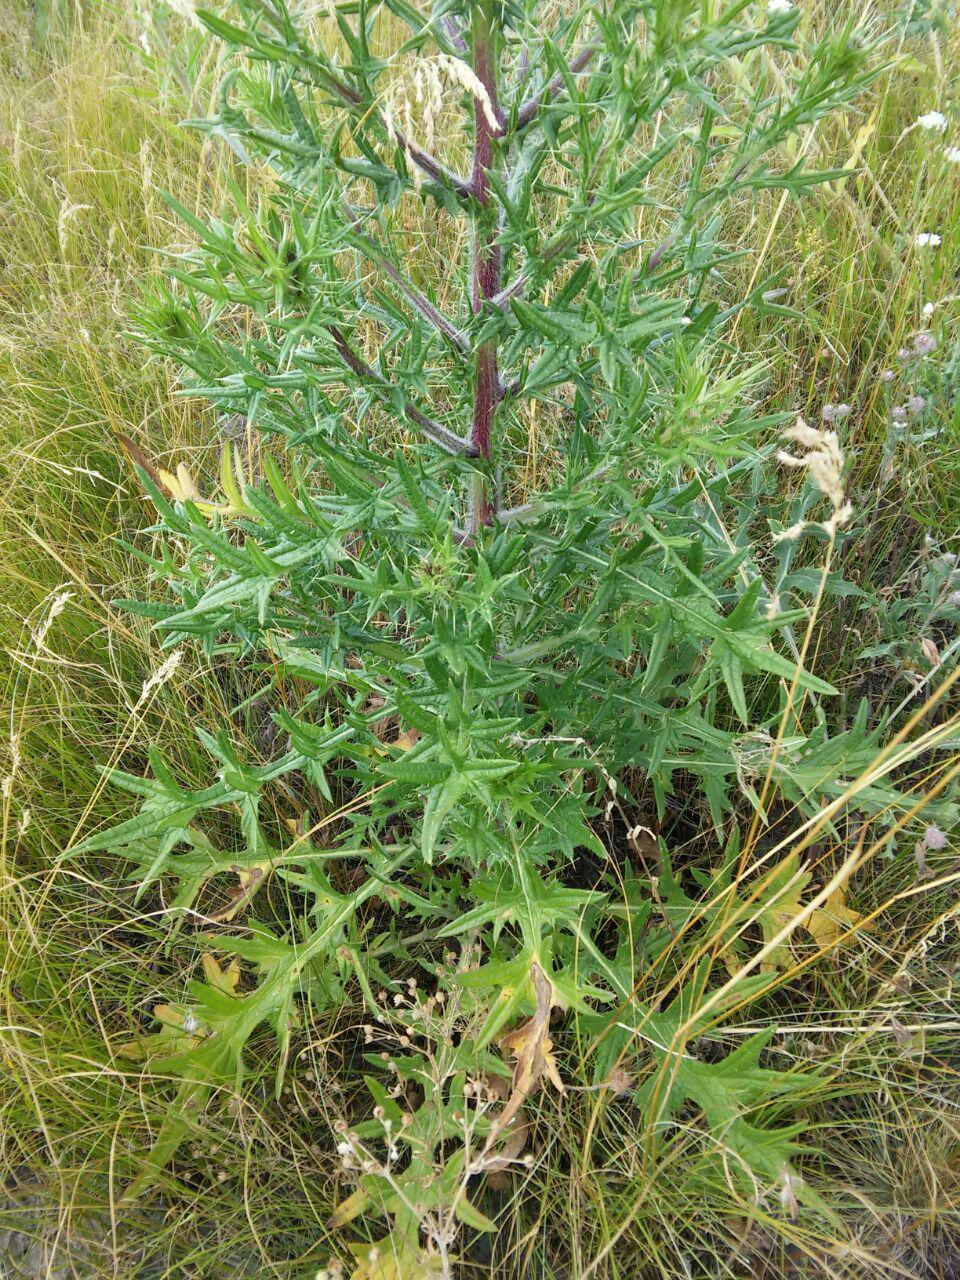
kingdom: Plantae
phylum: Tracheophyta
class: Magnoliopsida
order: Asterales
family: Asteraceae
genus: Lophiolepis
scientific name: Lophiolepis ukranica
